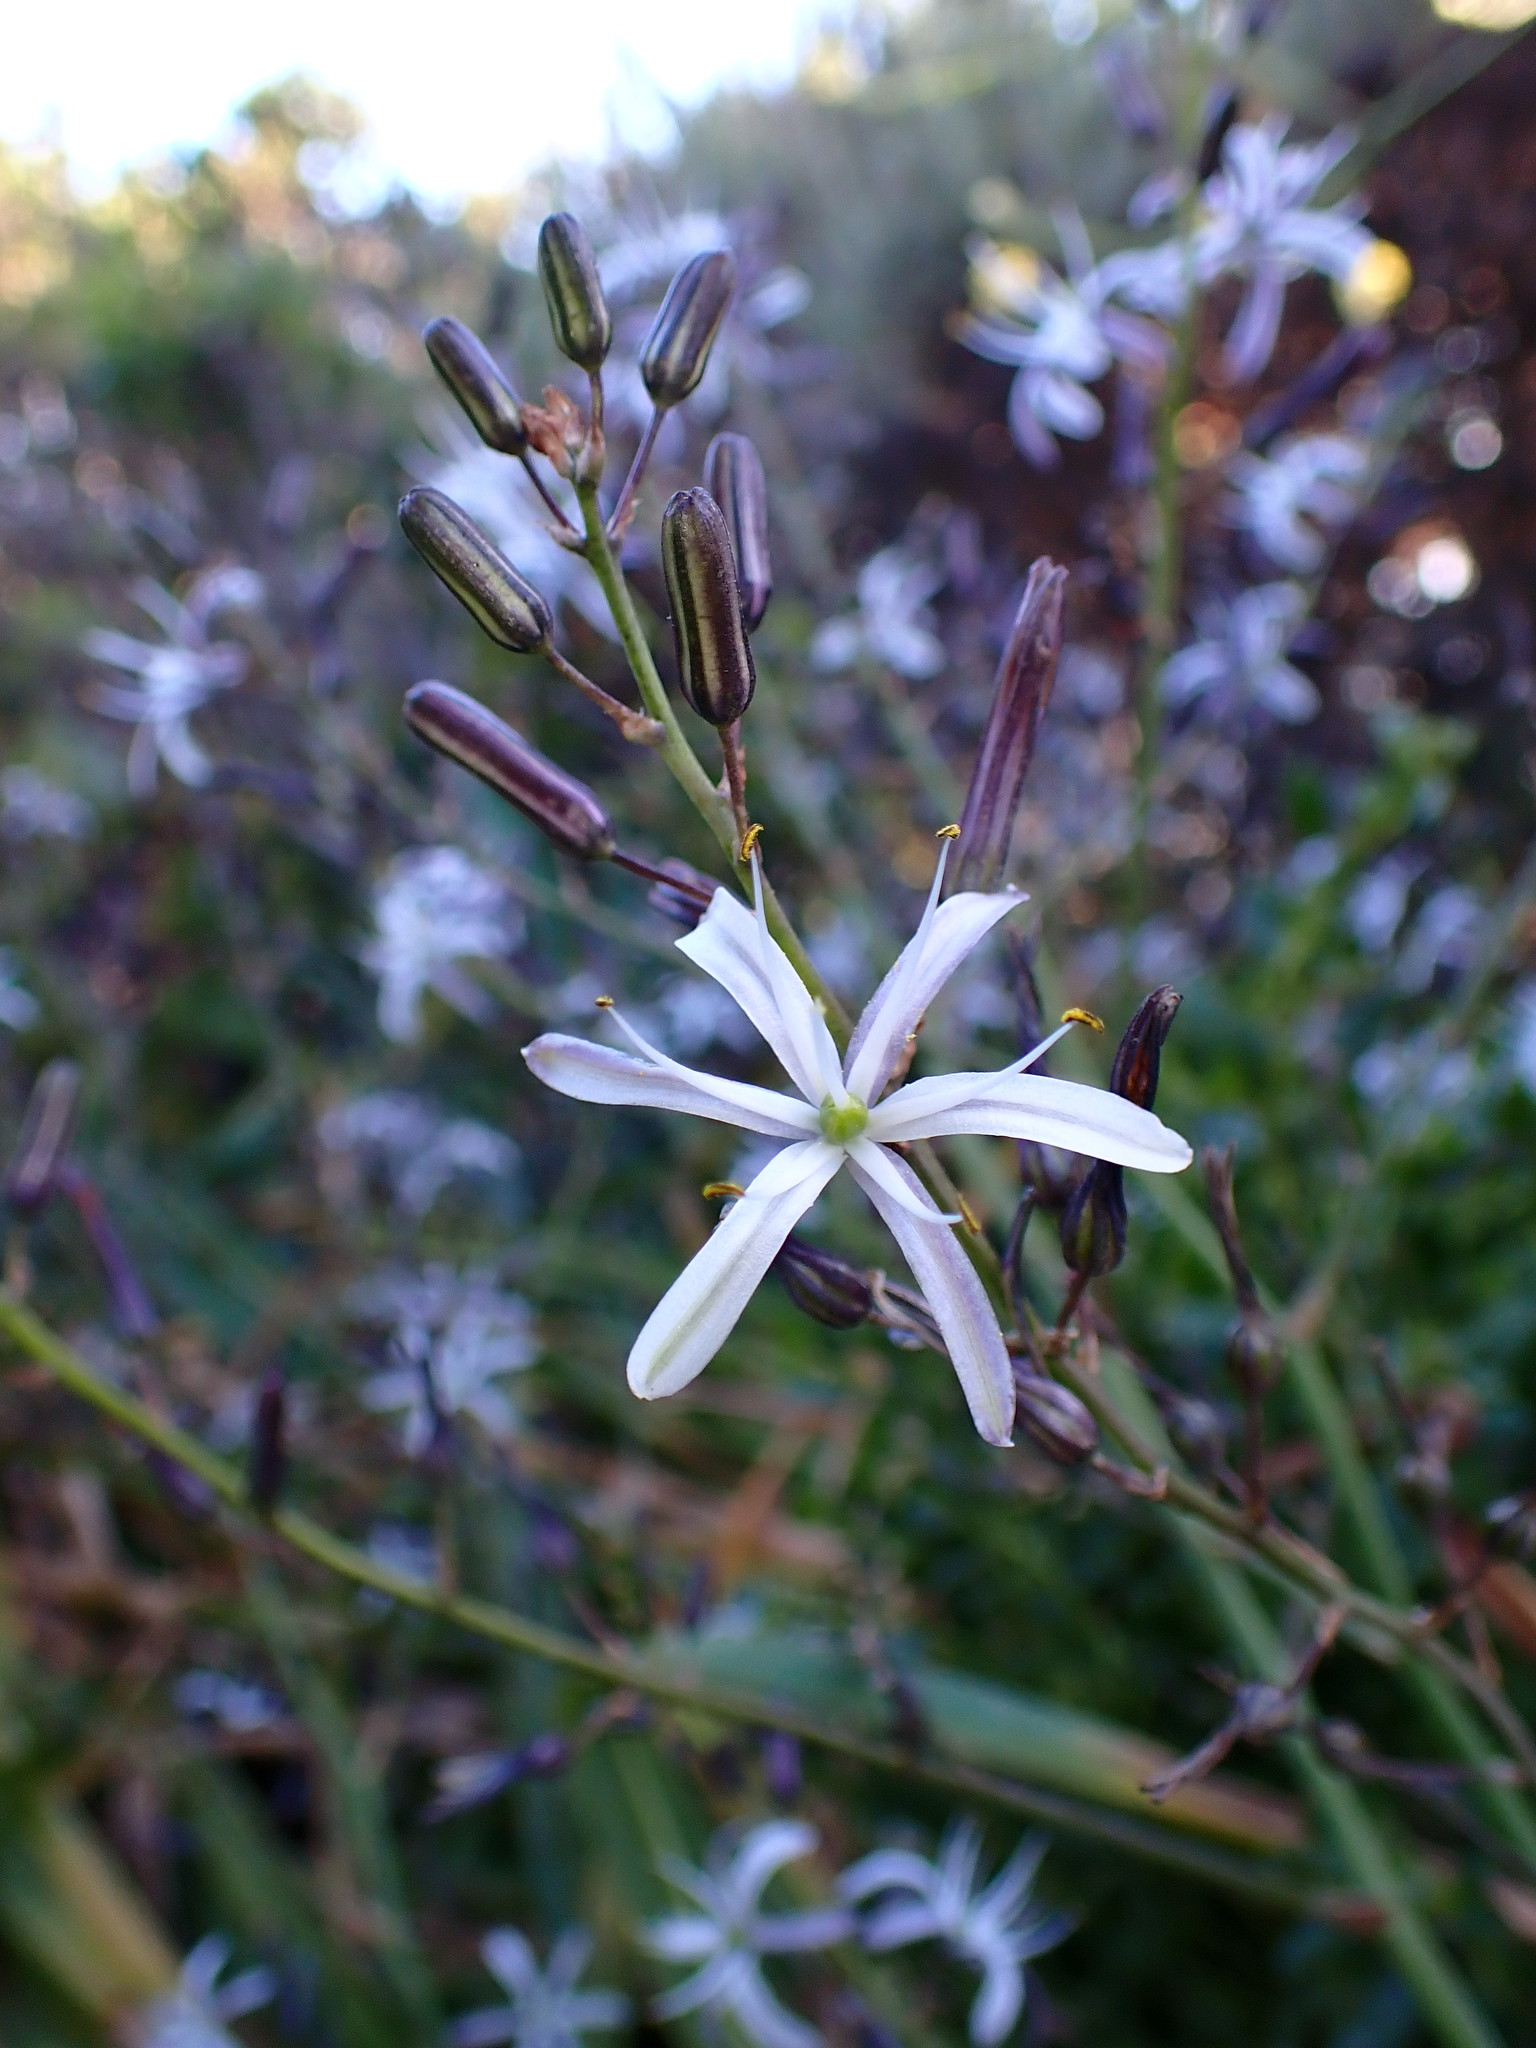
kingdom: Plantae
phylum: Tracheophyta
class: Liliopsida
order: Asparagales
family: Asparagaceae
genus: Chlorogalum
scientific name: Chlorogalum pomeridianum
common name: Amole
